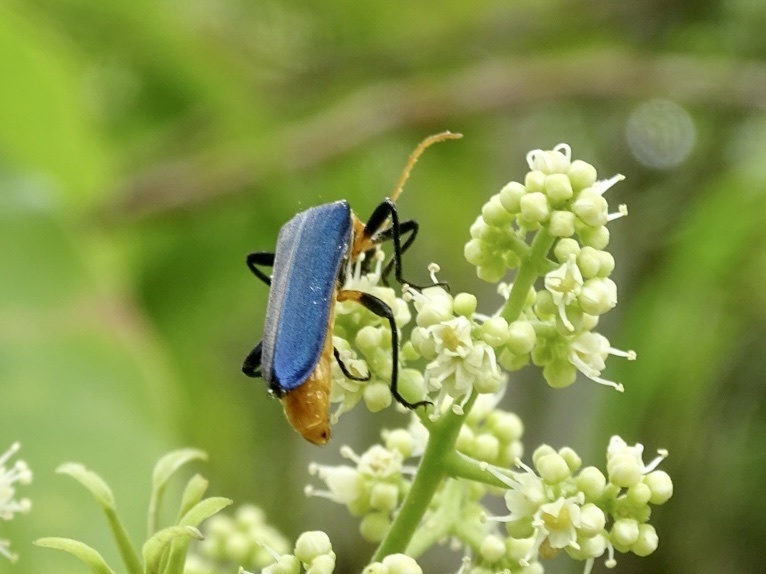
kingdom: Animalia
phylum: Arthropoda
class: Insecta
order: Coleoptera
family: Prionoceridae
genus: Idgia
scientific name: Idgia
